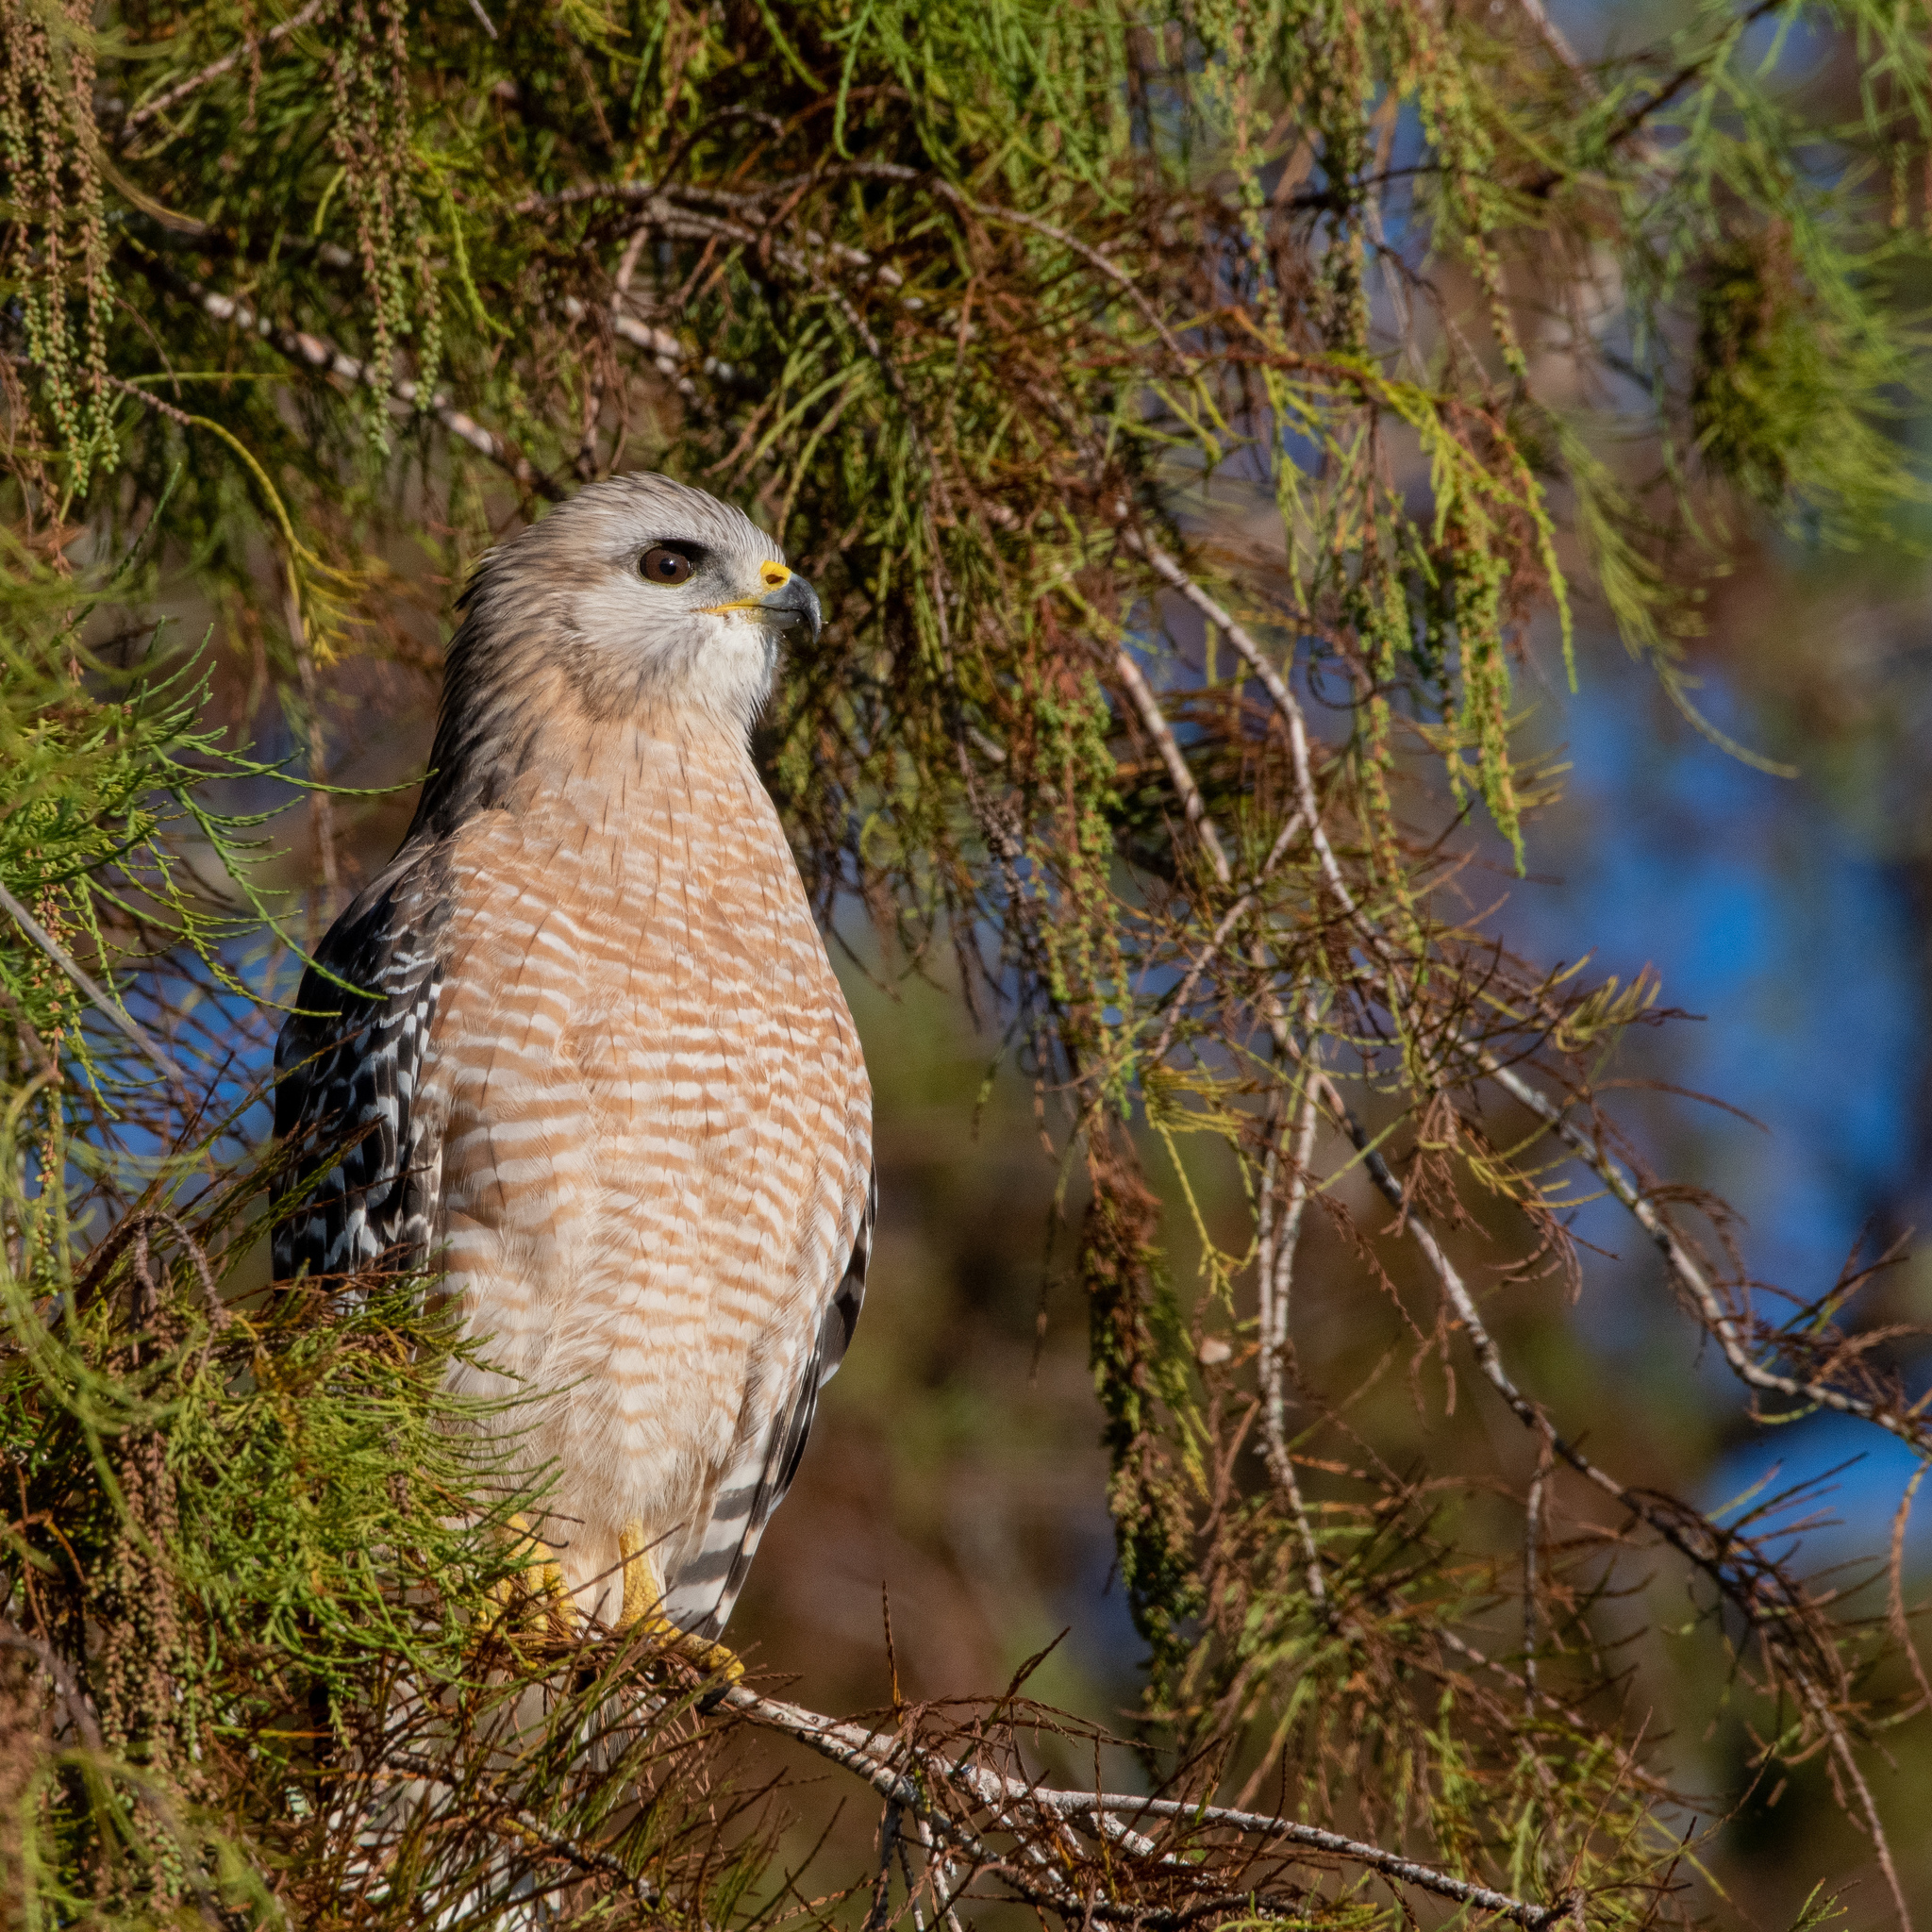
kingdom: Animalia
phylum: Chordata
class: Aves
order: Accipitriformes
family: Accipitridae
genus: Buteo
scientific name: Buteo lineatus
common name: Red-shouldered hawk
